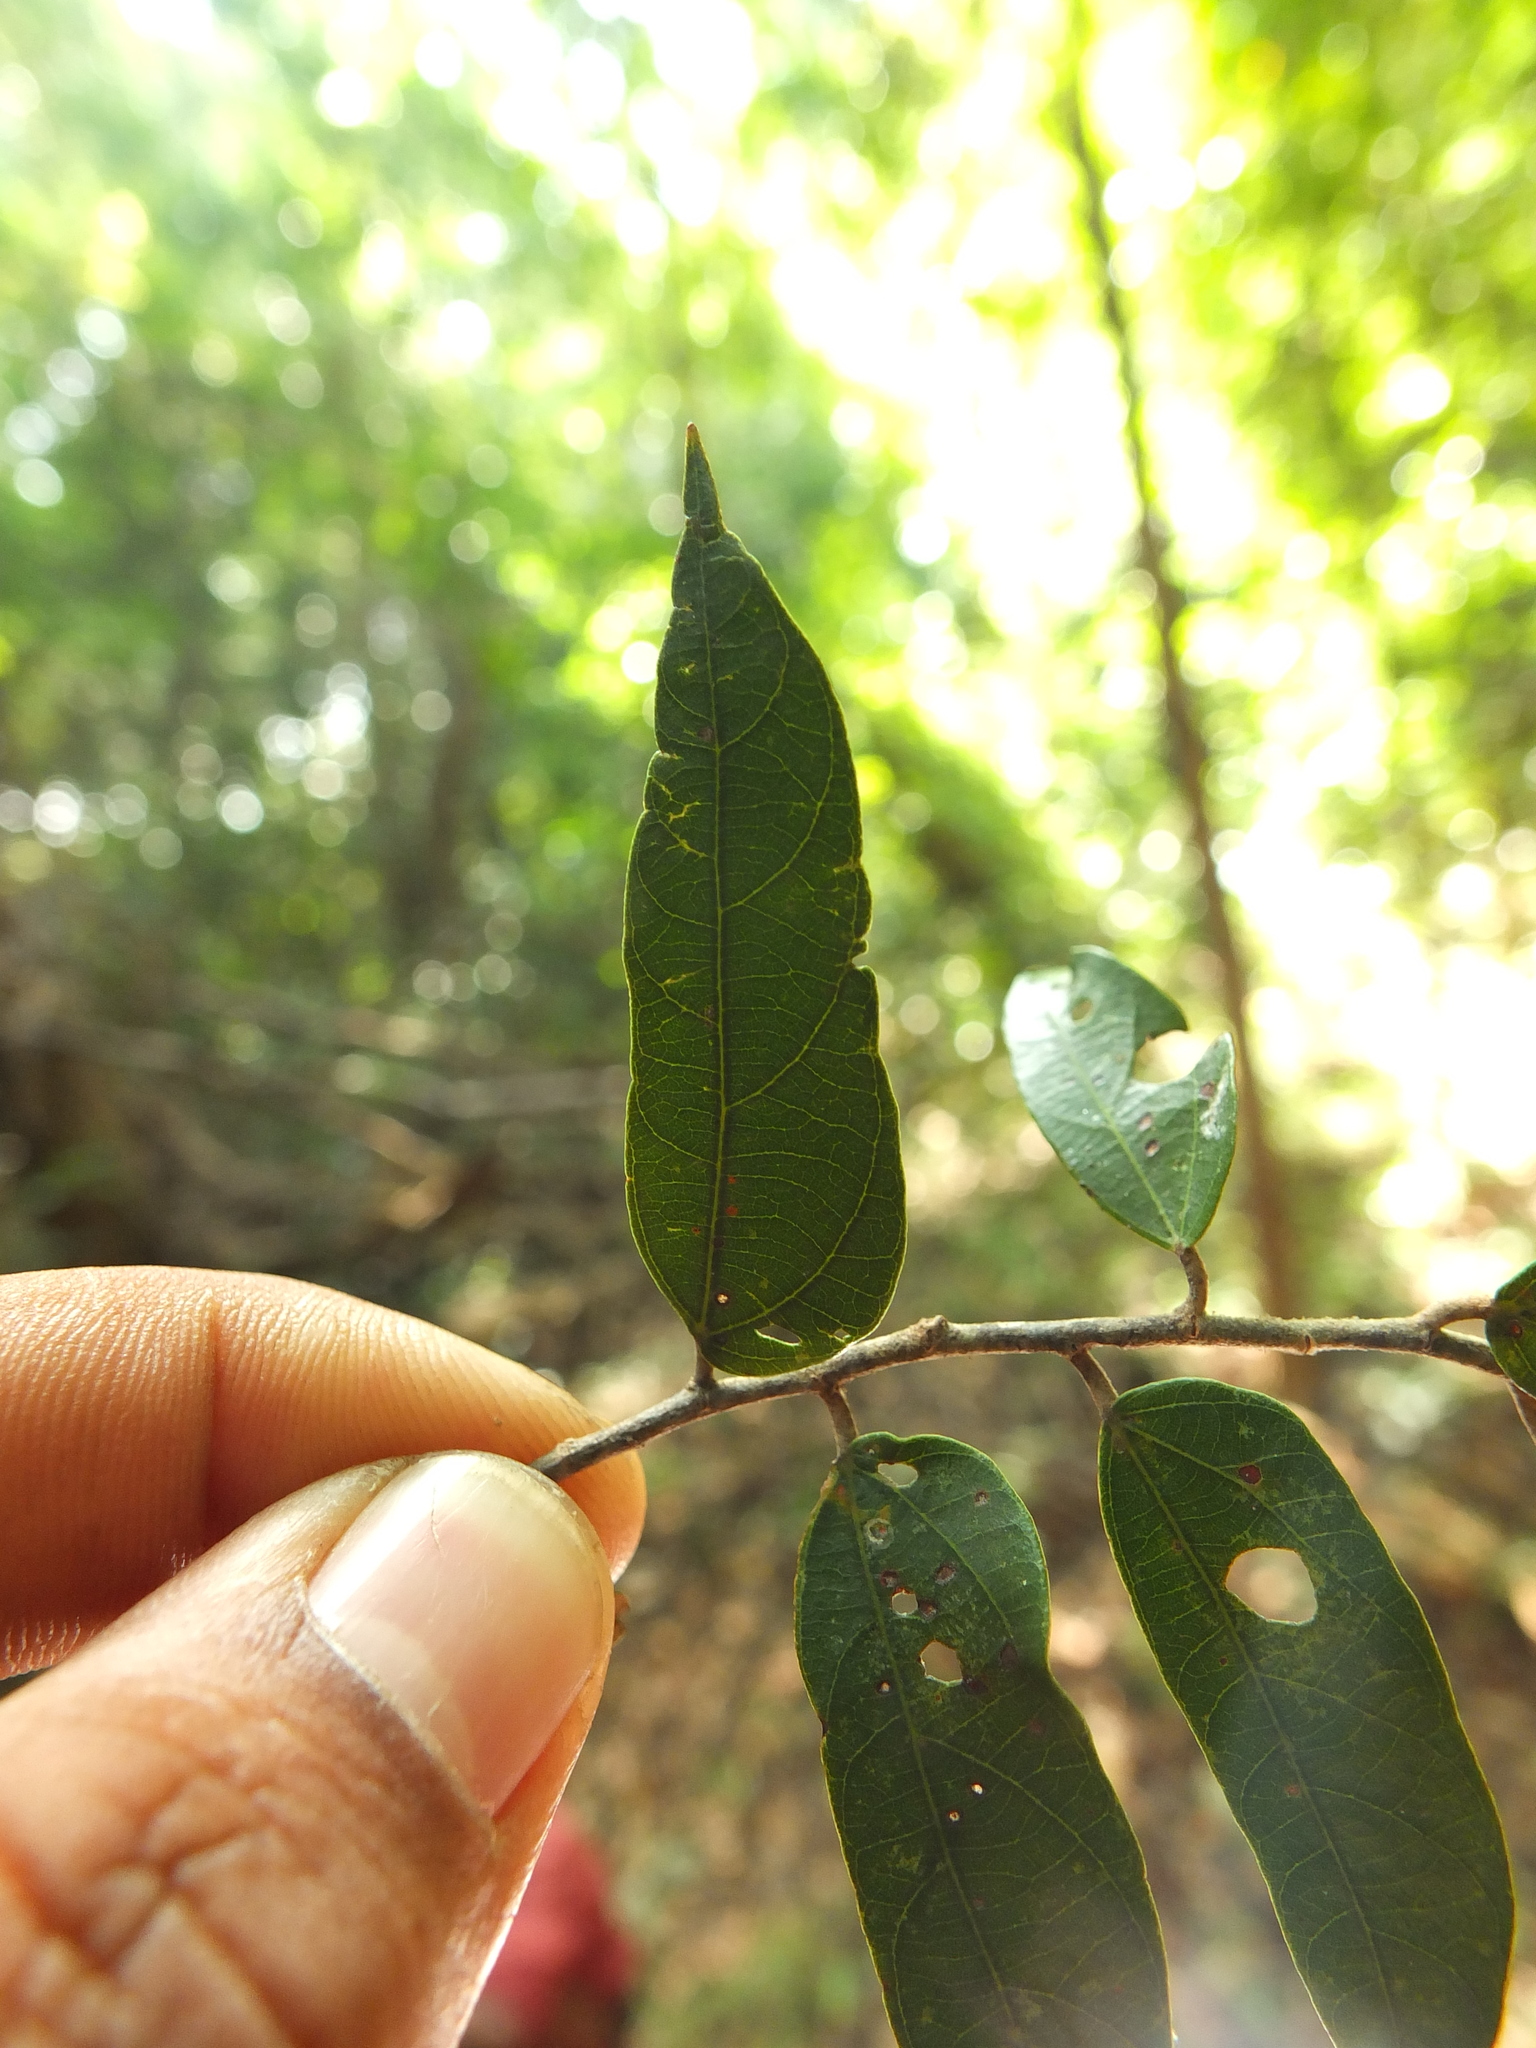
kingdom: Plantae
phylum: Tracheophyta
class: Magnoliopsida
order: Malvales
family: Malvaceae
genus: Pterospermum
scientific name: Pterospermum rubiginosum
